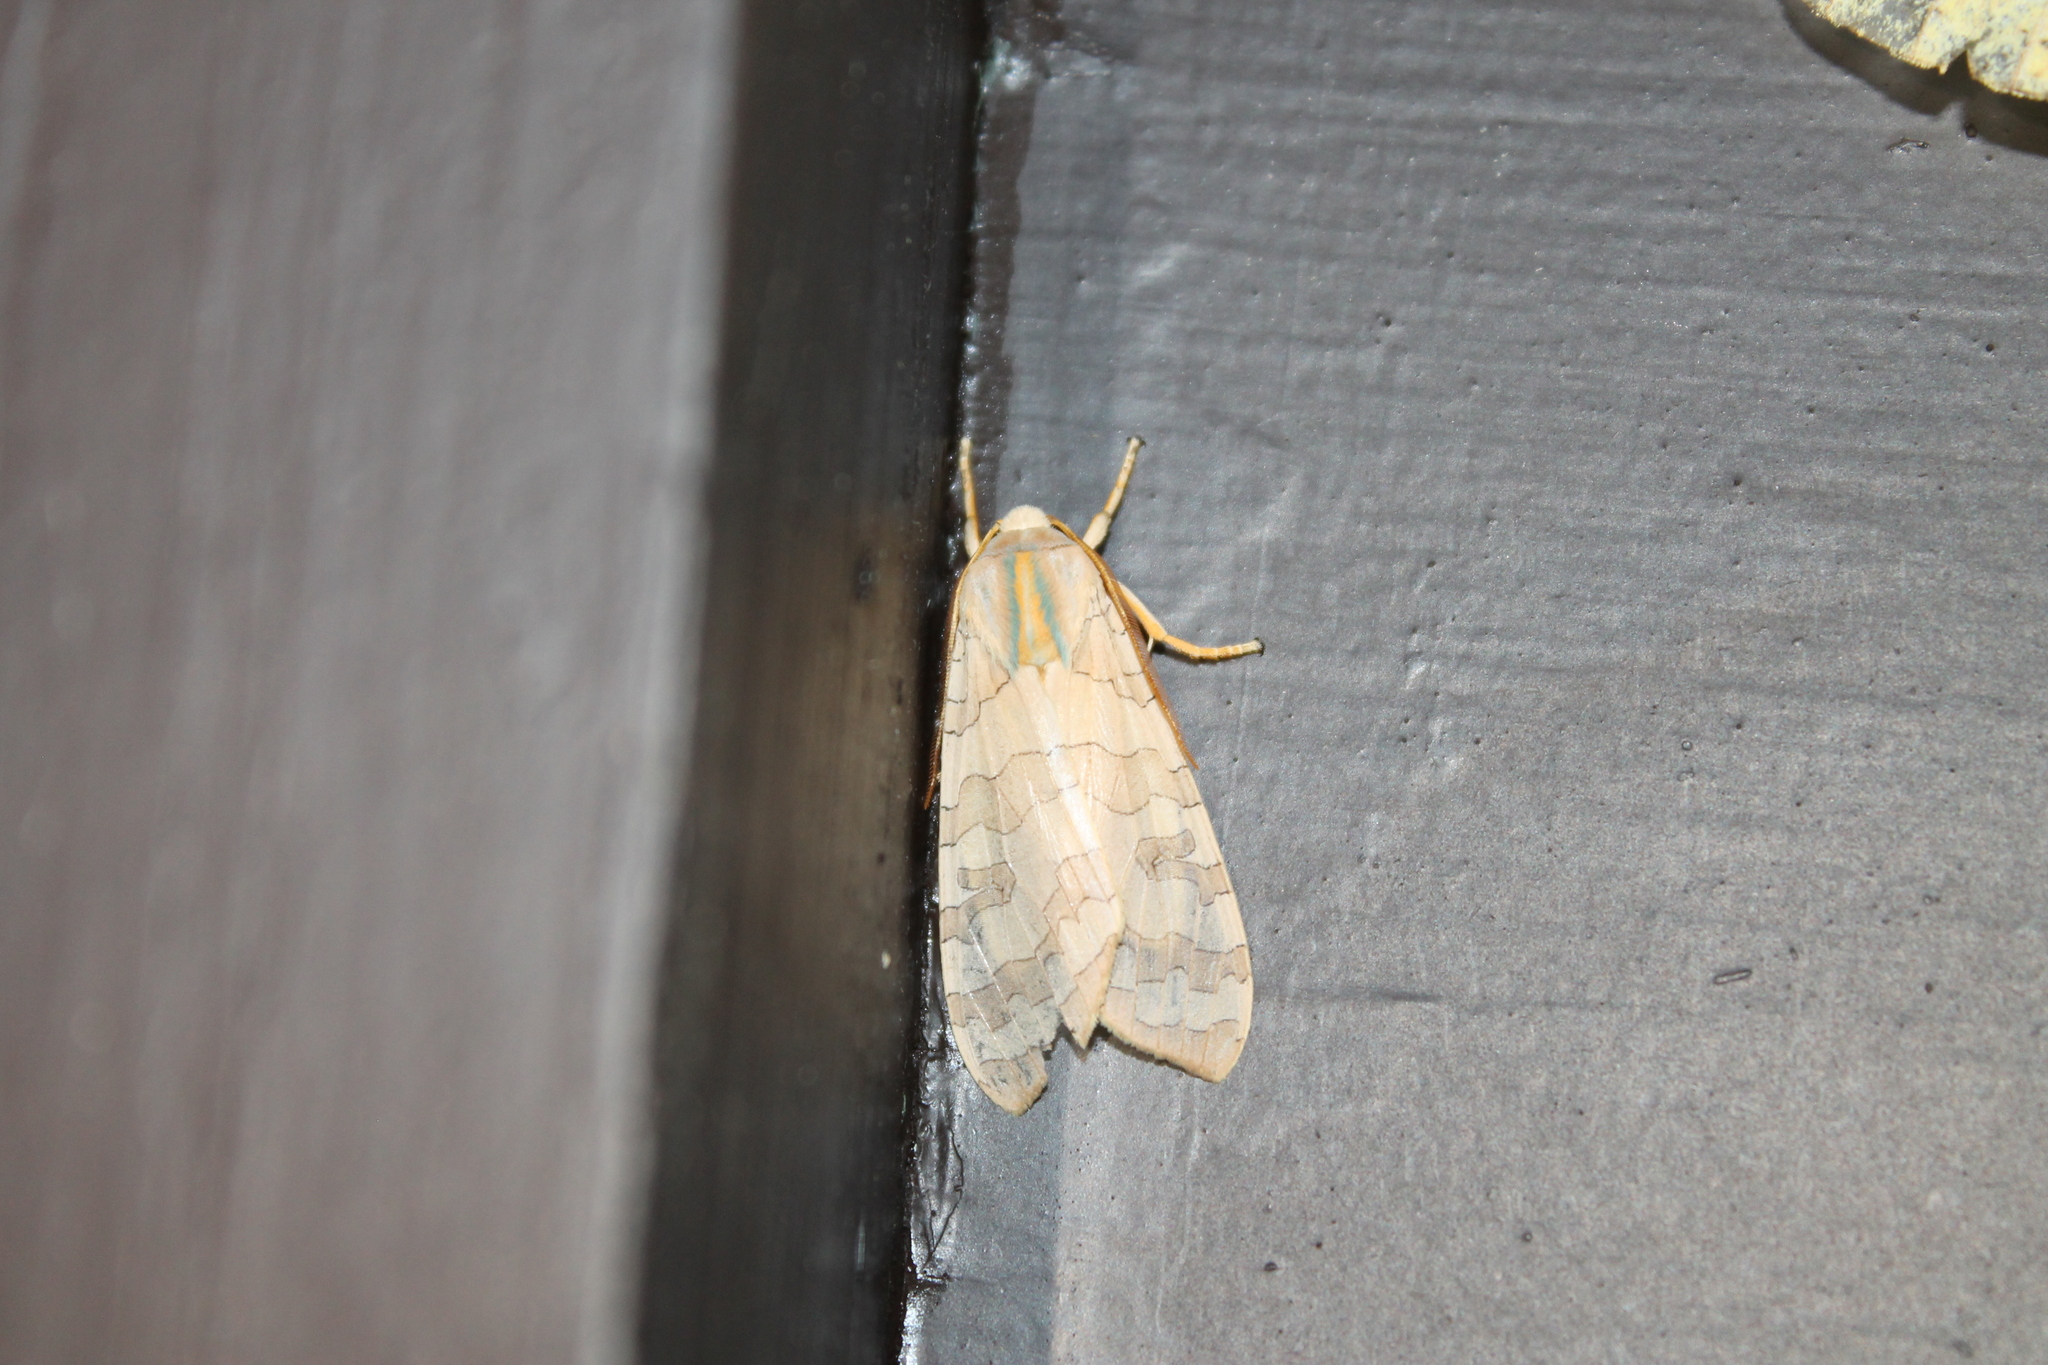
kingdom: Animalia
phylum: Arthropoda
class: Insecta
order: Lepidoptera
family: Erebidae
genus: Halysidota
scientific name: Halysidota
